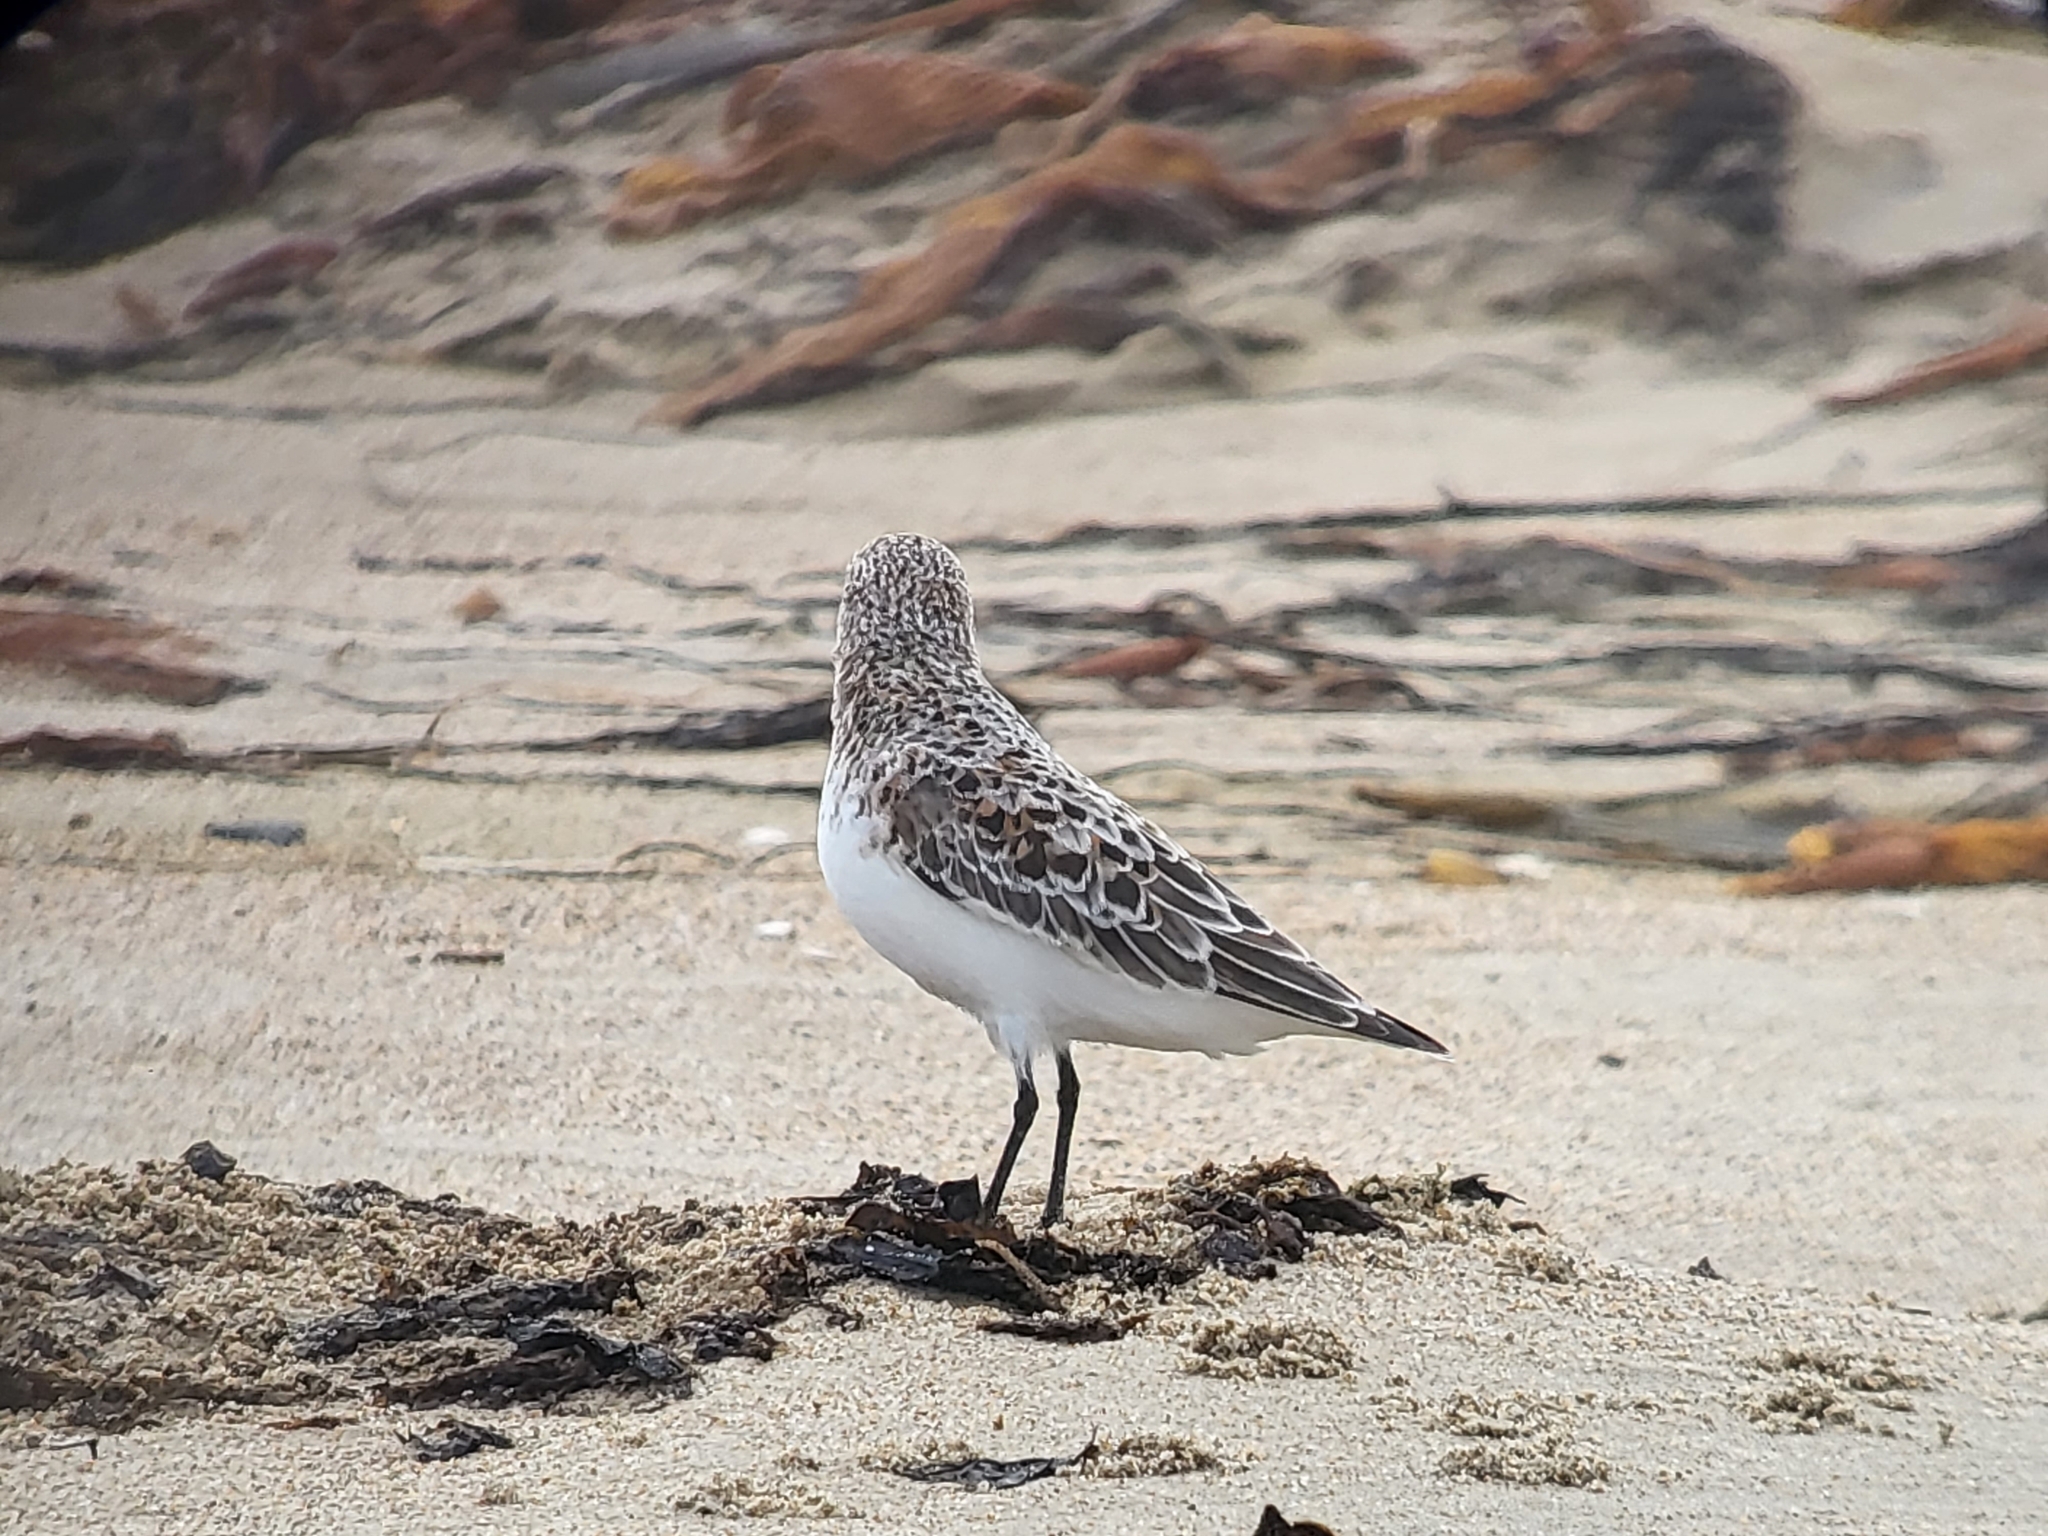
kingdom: Animalia
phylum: Chordata
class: Aves
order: Charadriiformes
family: Scolopacidae
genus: Calidris
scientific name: Calidris alba
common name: Sanderling
